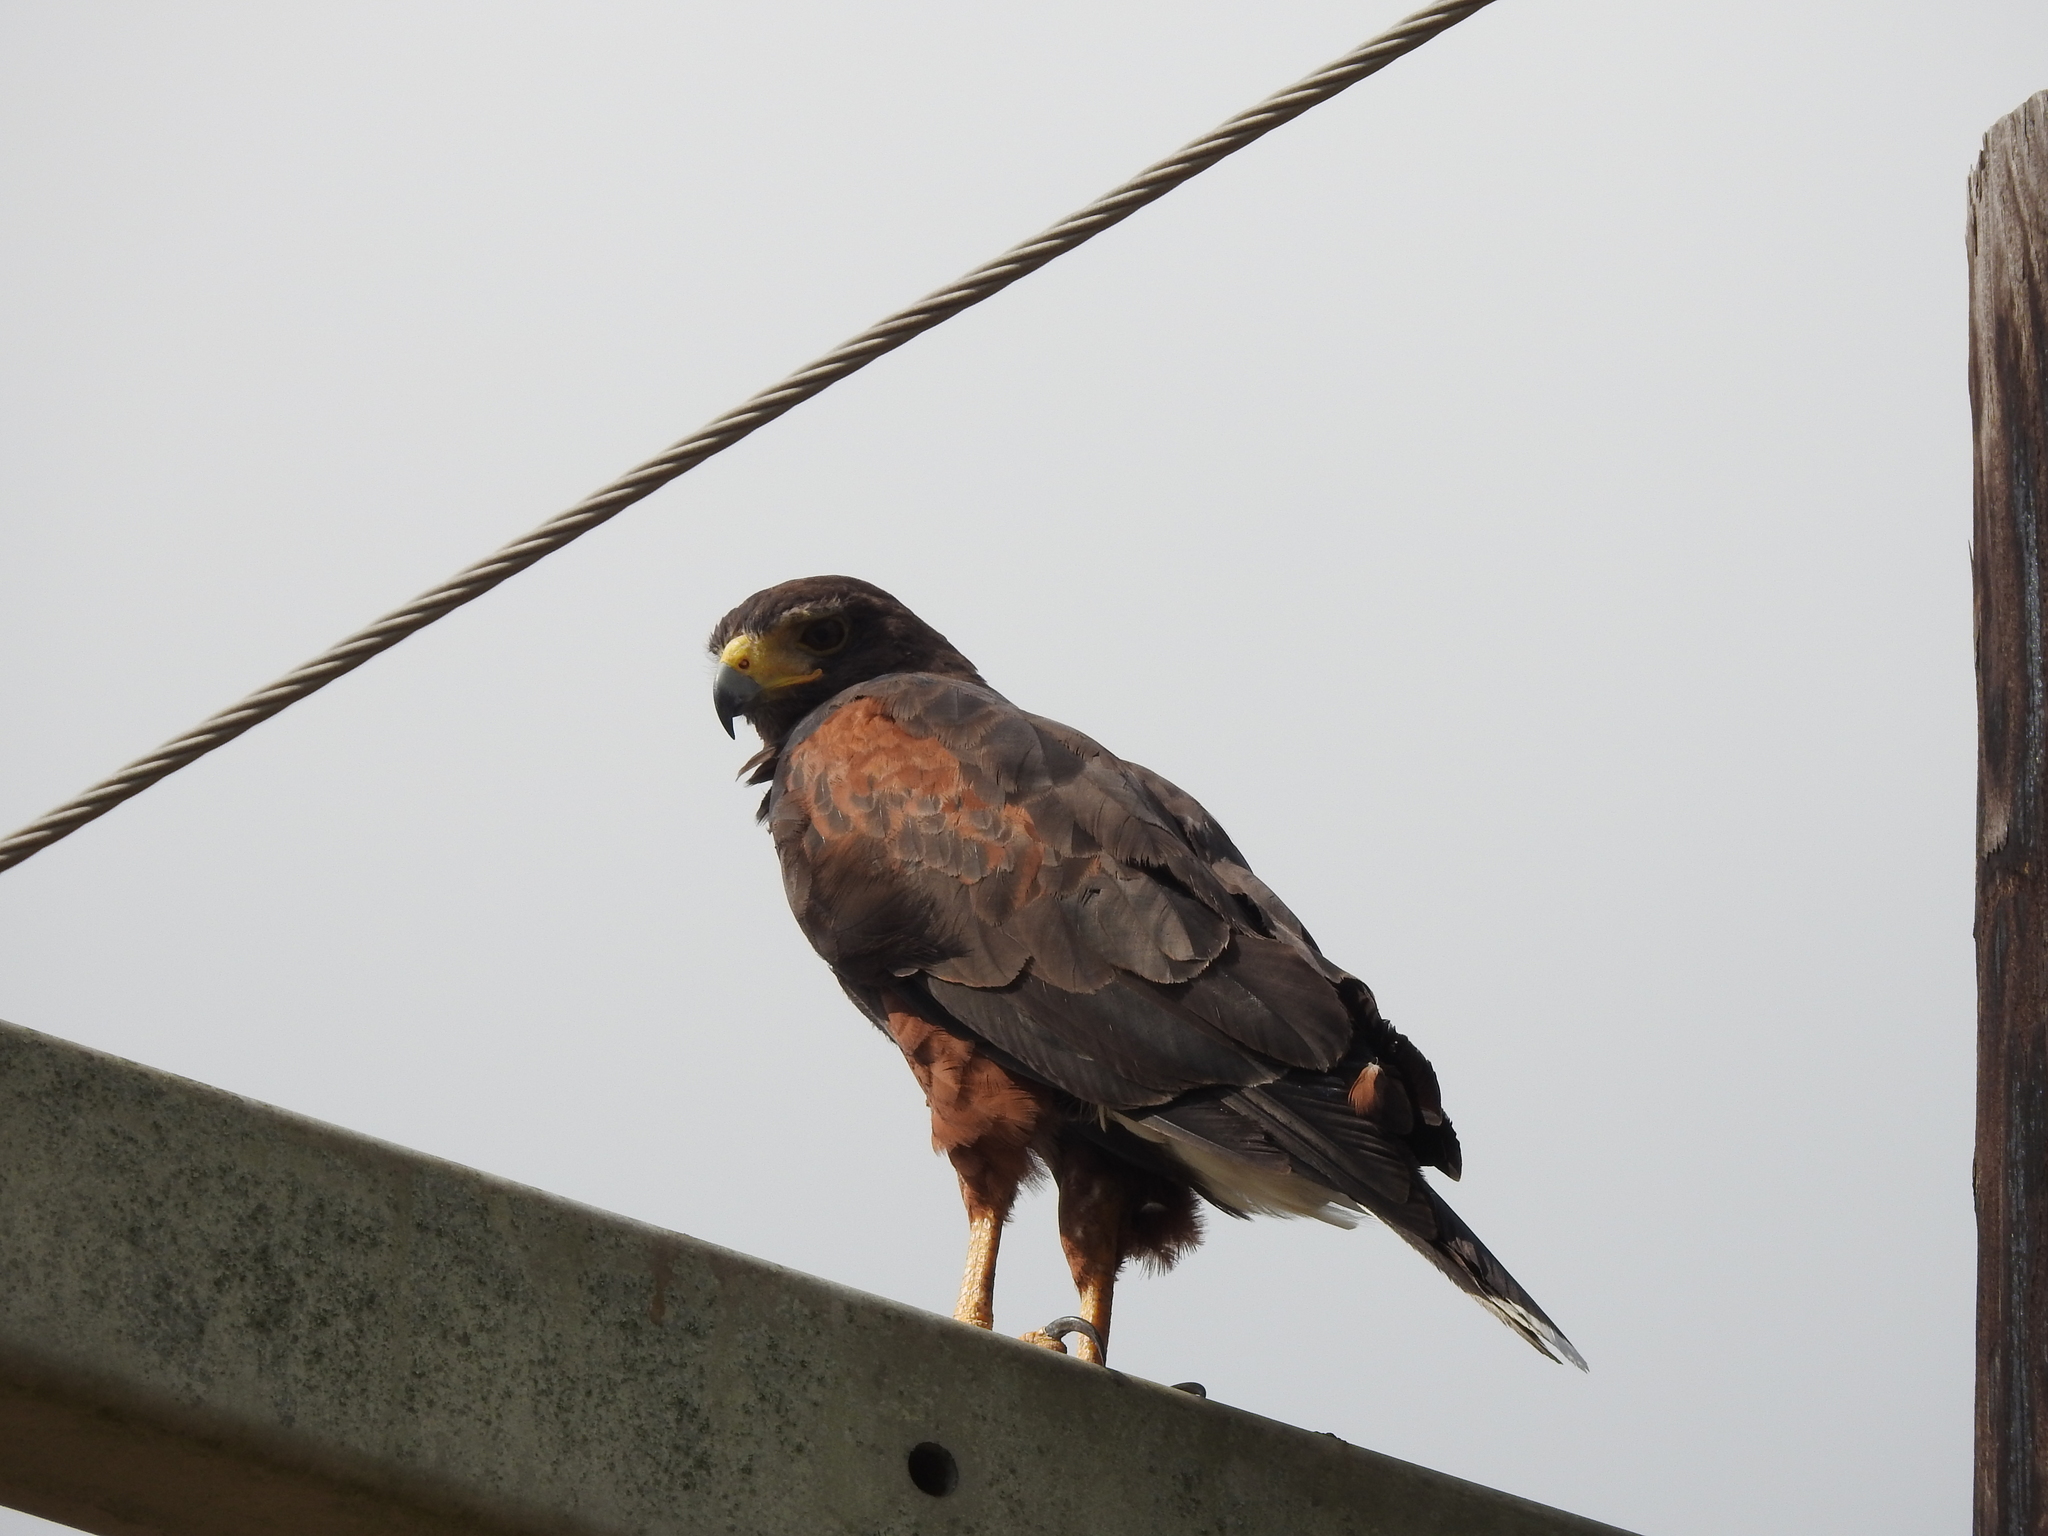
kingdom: Animalia
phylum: Chordata
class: Aves
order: Accipitriformes
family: Accipitridae
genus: Parabuteo
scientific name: Parabuteo unicinctus
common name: Harris's hawk
